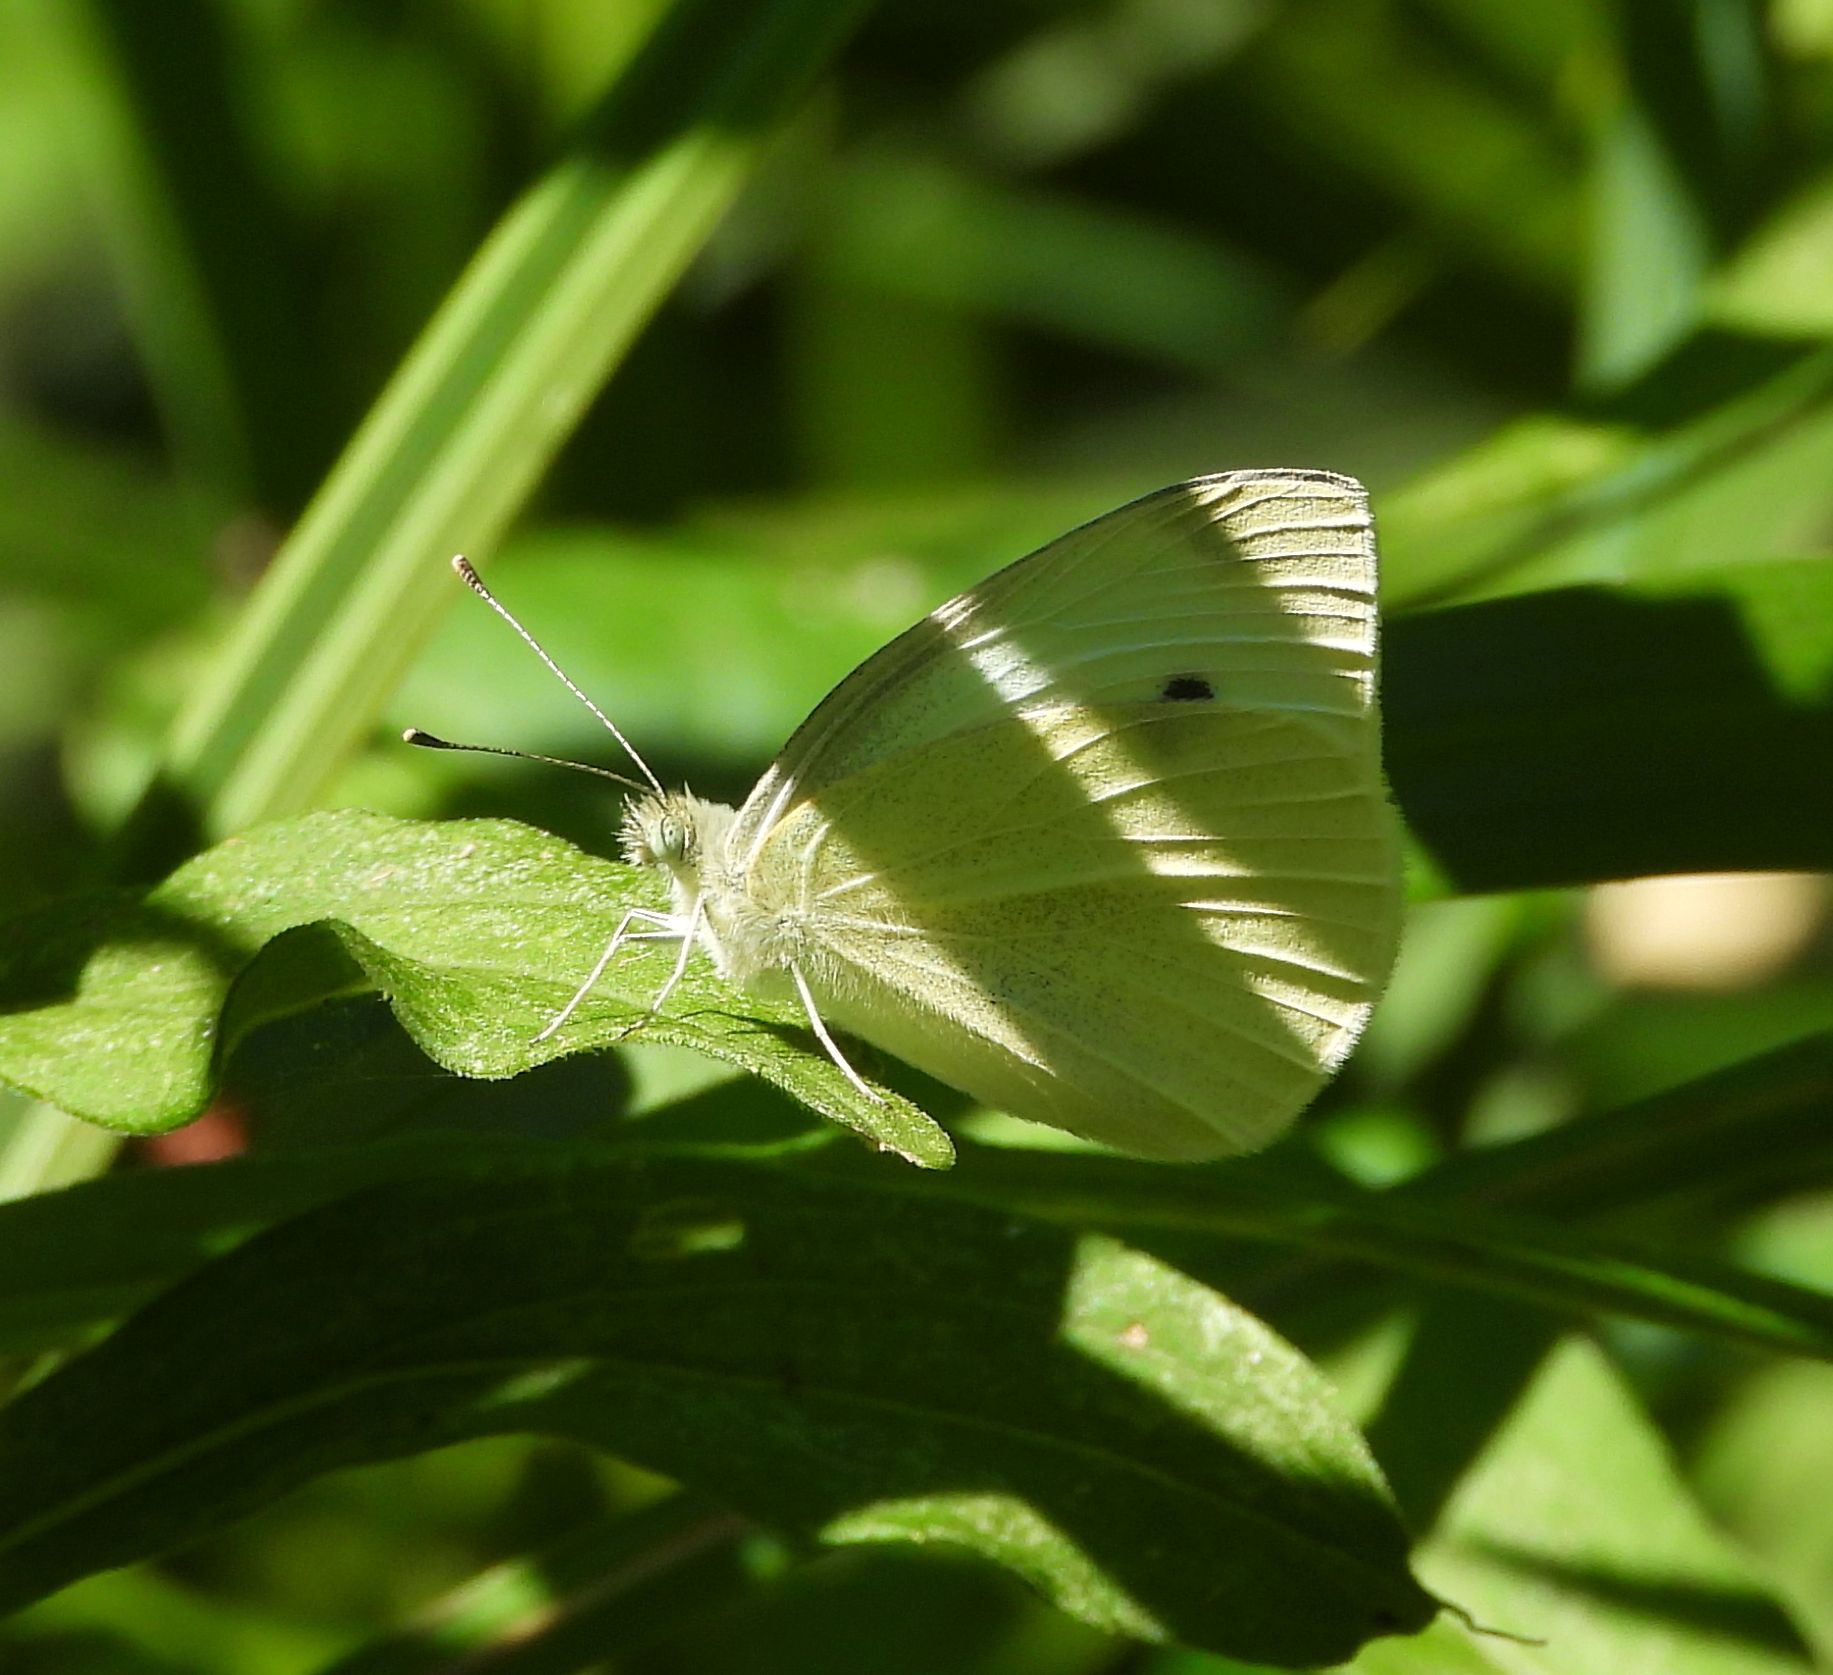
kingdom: Animalia
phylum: Arthropoda
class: Insecta
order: Lepidoptera
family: Pieridae
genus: Pieris
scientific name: Pieris rapae
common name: Small white
